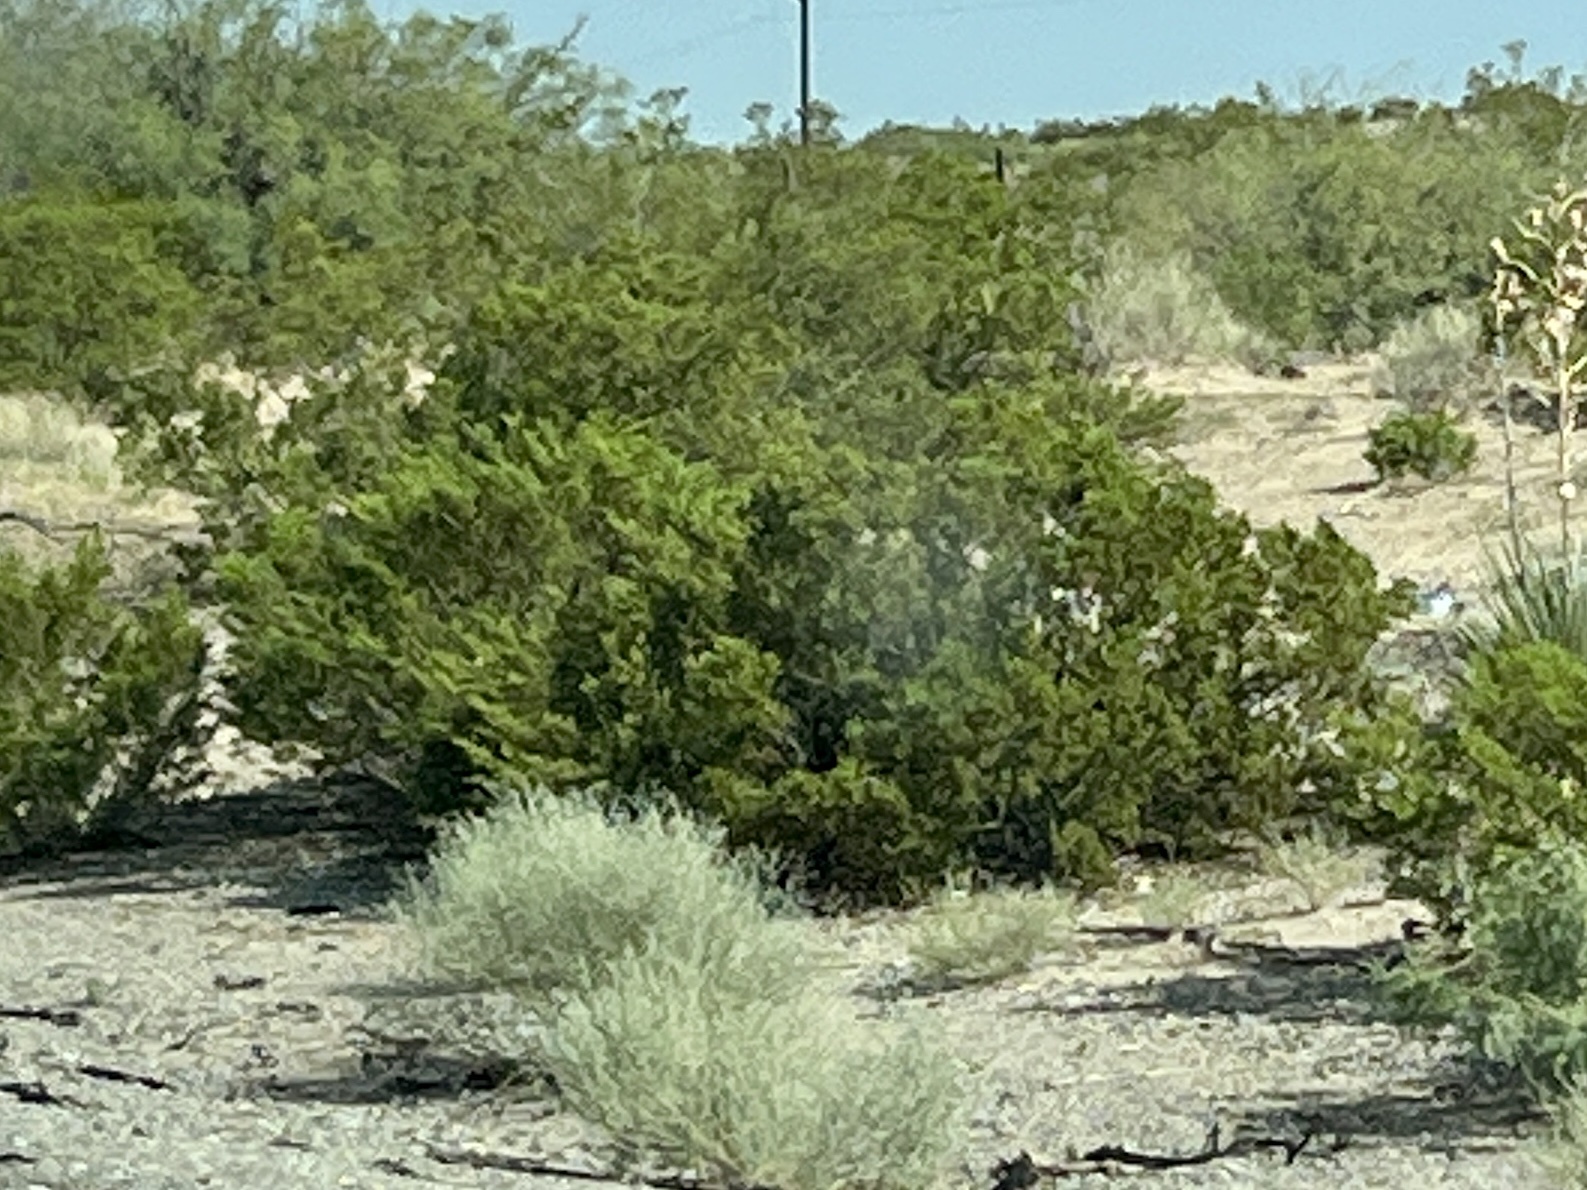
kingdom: Plantae
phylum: Tracheophyta
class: Magnoliopsida
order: Zygophyllales
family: Zygophyllaceae
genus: Larrea
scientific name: Larrea tridentata
